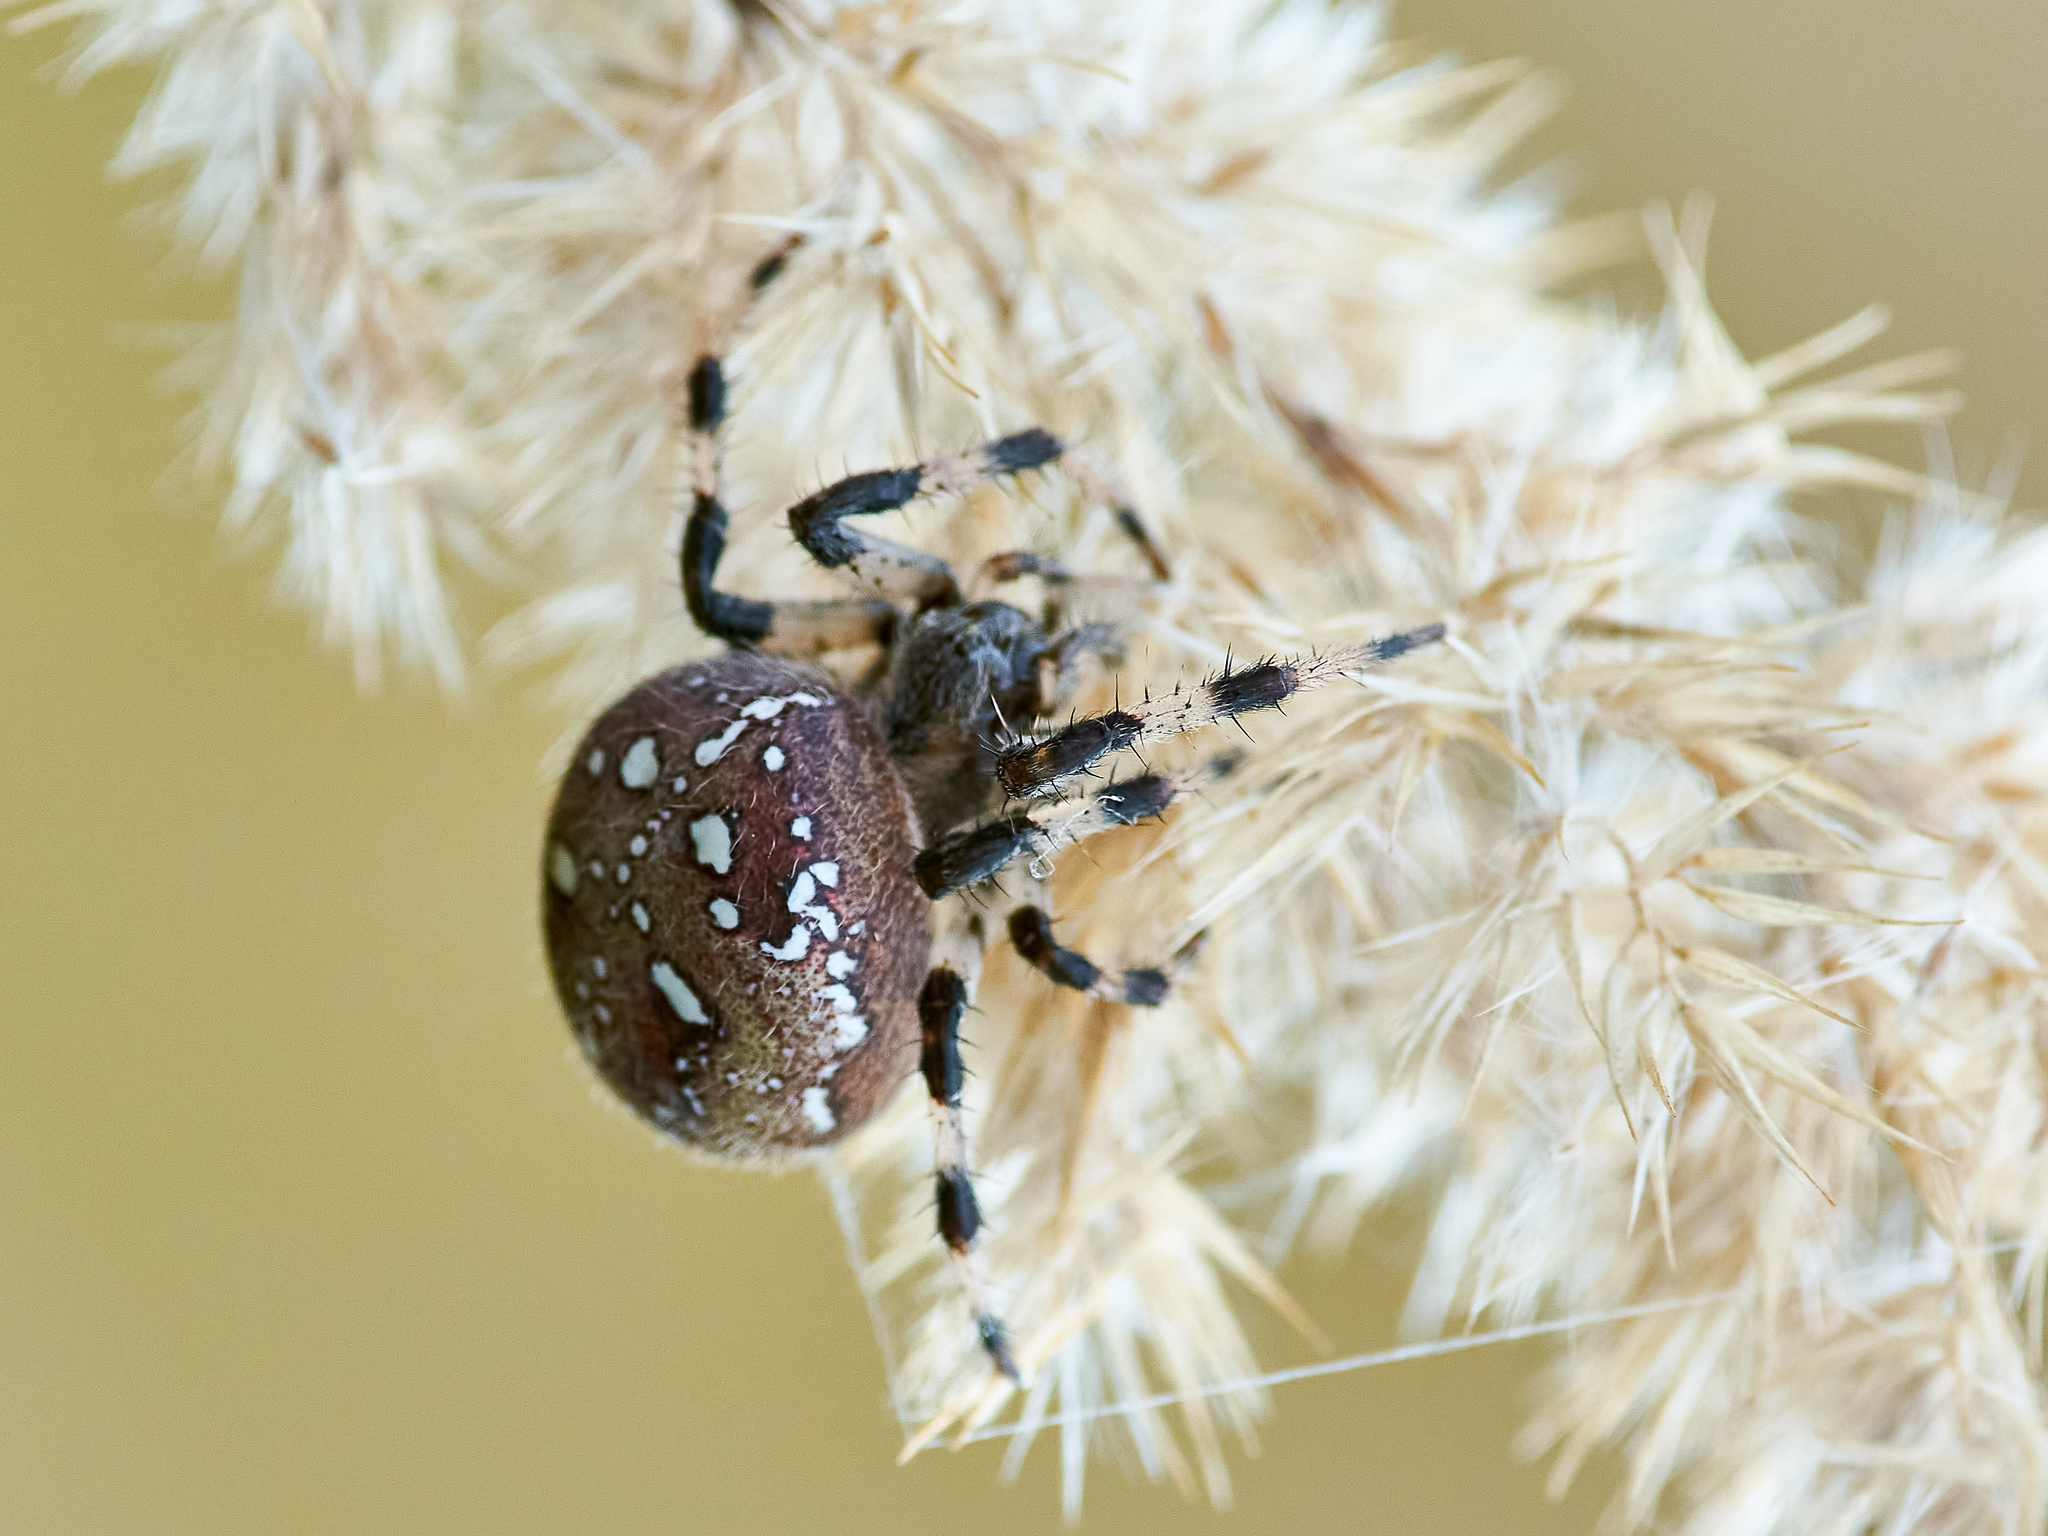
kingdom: Animalia
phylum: Arthropoda
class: Arachnida
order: Araneae
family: Araneidae
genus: Araneus
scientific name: Araneus quadratus
